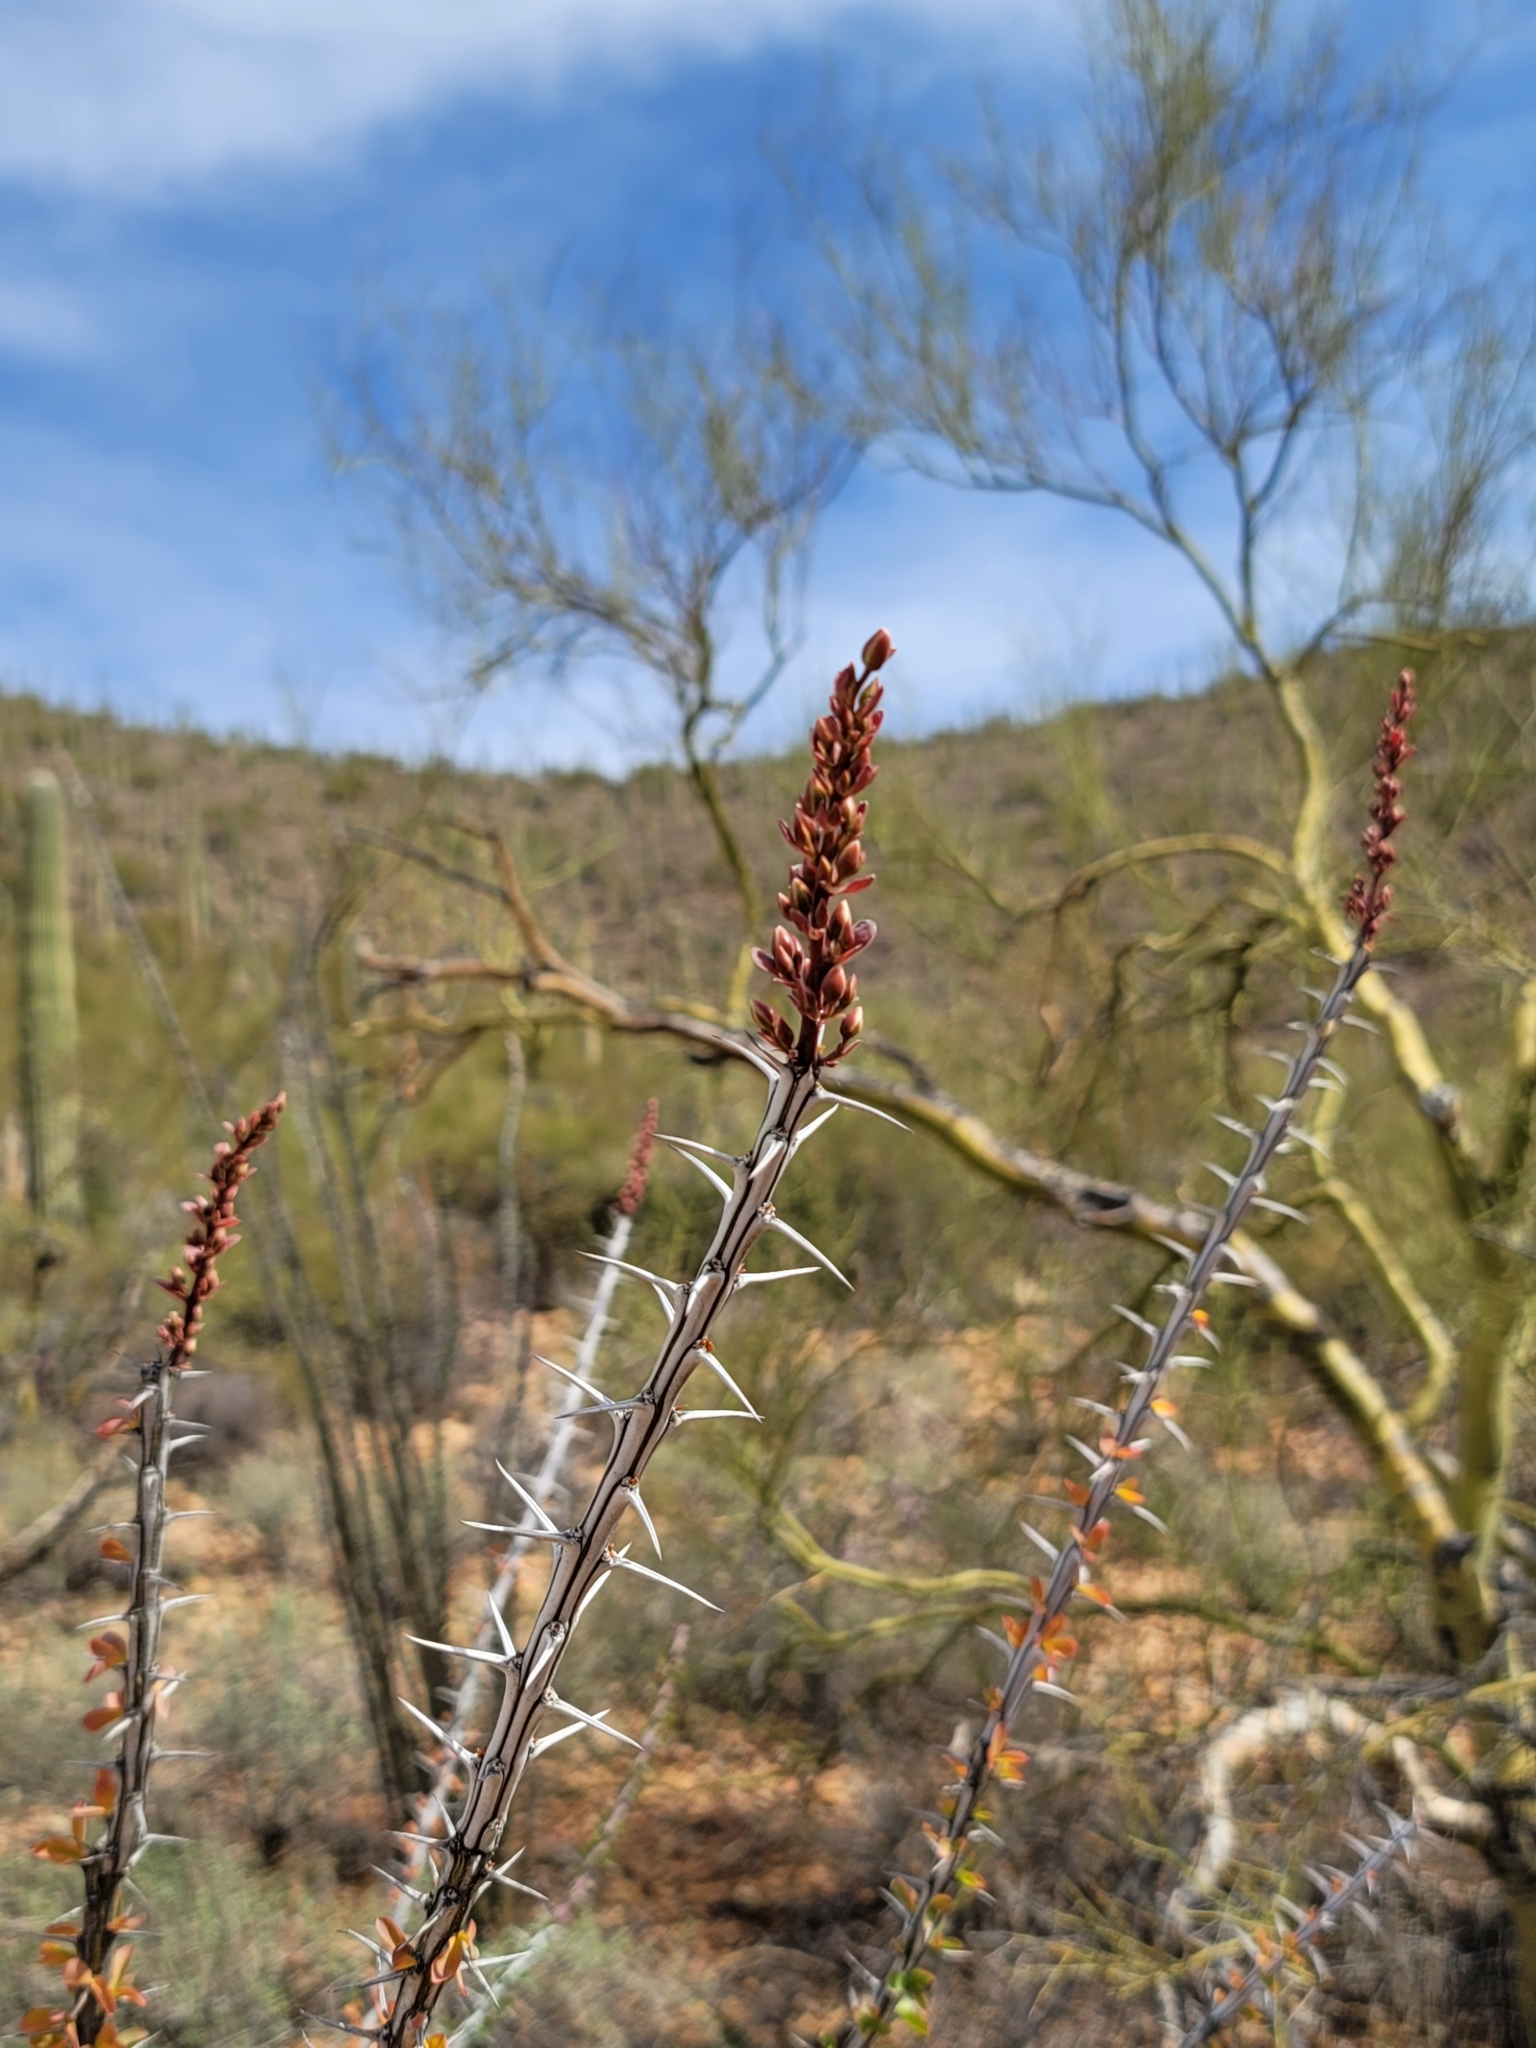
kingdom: Plantae
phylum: Tracheophyta
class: Magnoliopsida
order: Ericales
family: Fouquieriaceae
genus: Fouquieria
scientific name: Fouquieria splendens
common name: Vine-cactus
